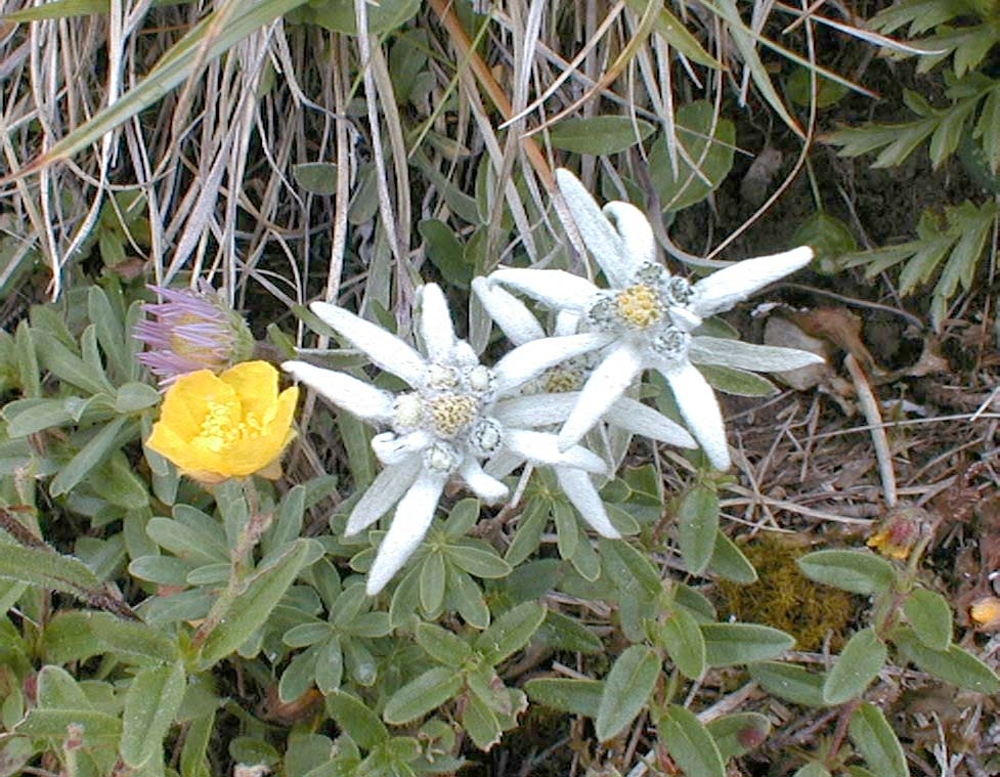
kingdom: Plantae
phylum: Tracheophyta
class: Magnoliopsida
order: Asterales
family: Asteraceae
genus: Leontopodium
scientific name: Leontopodium nivale
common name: Edelweiss
